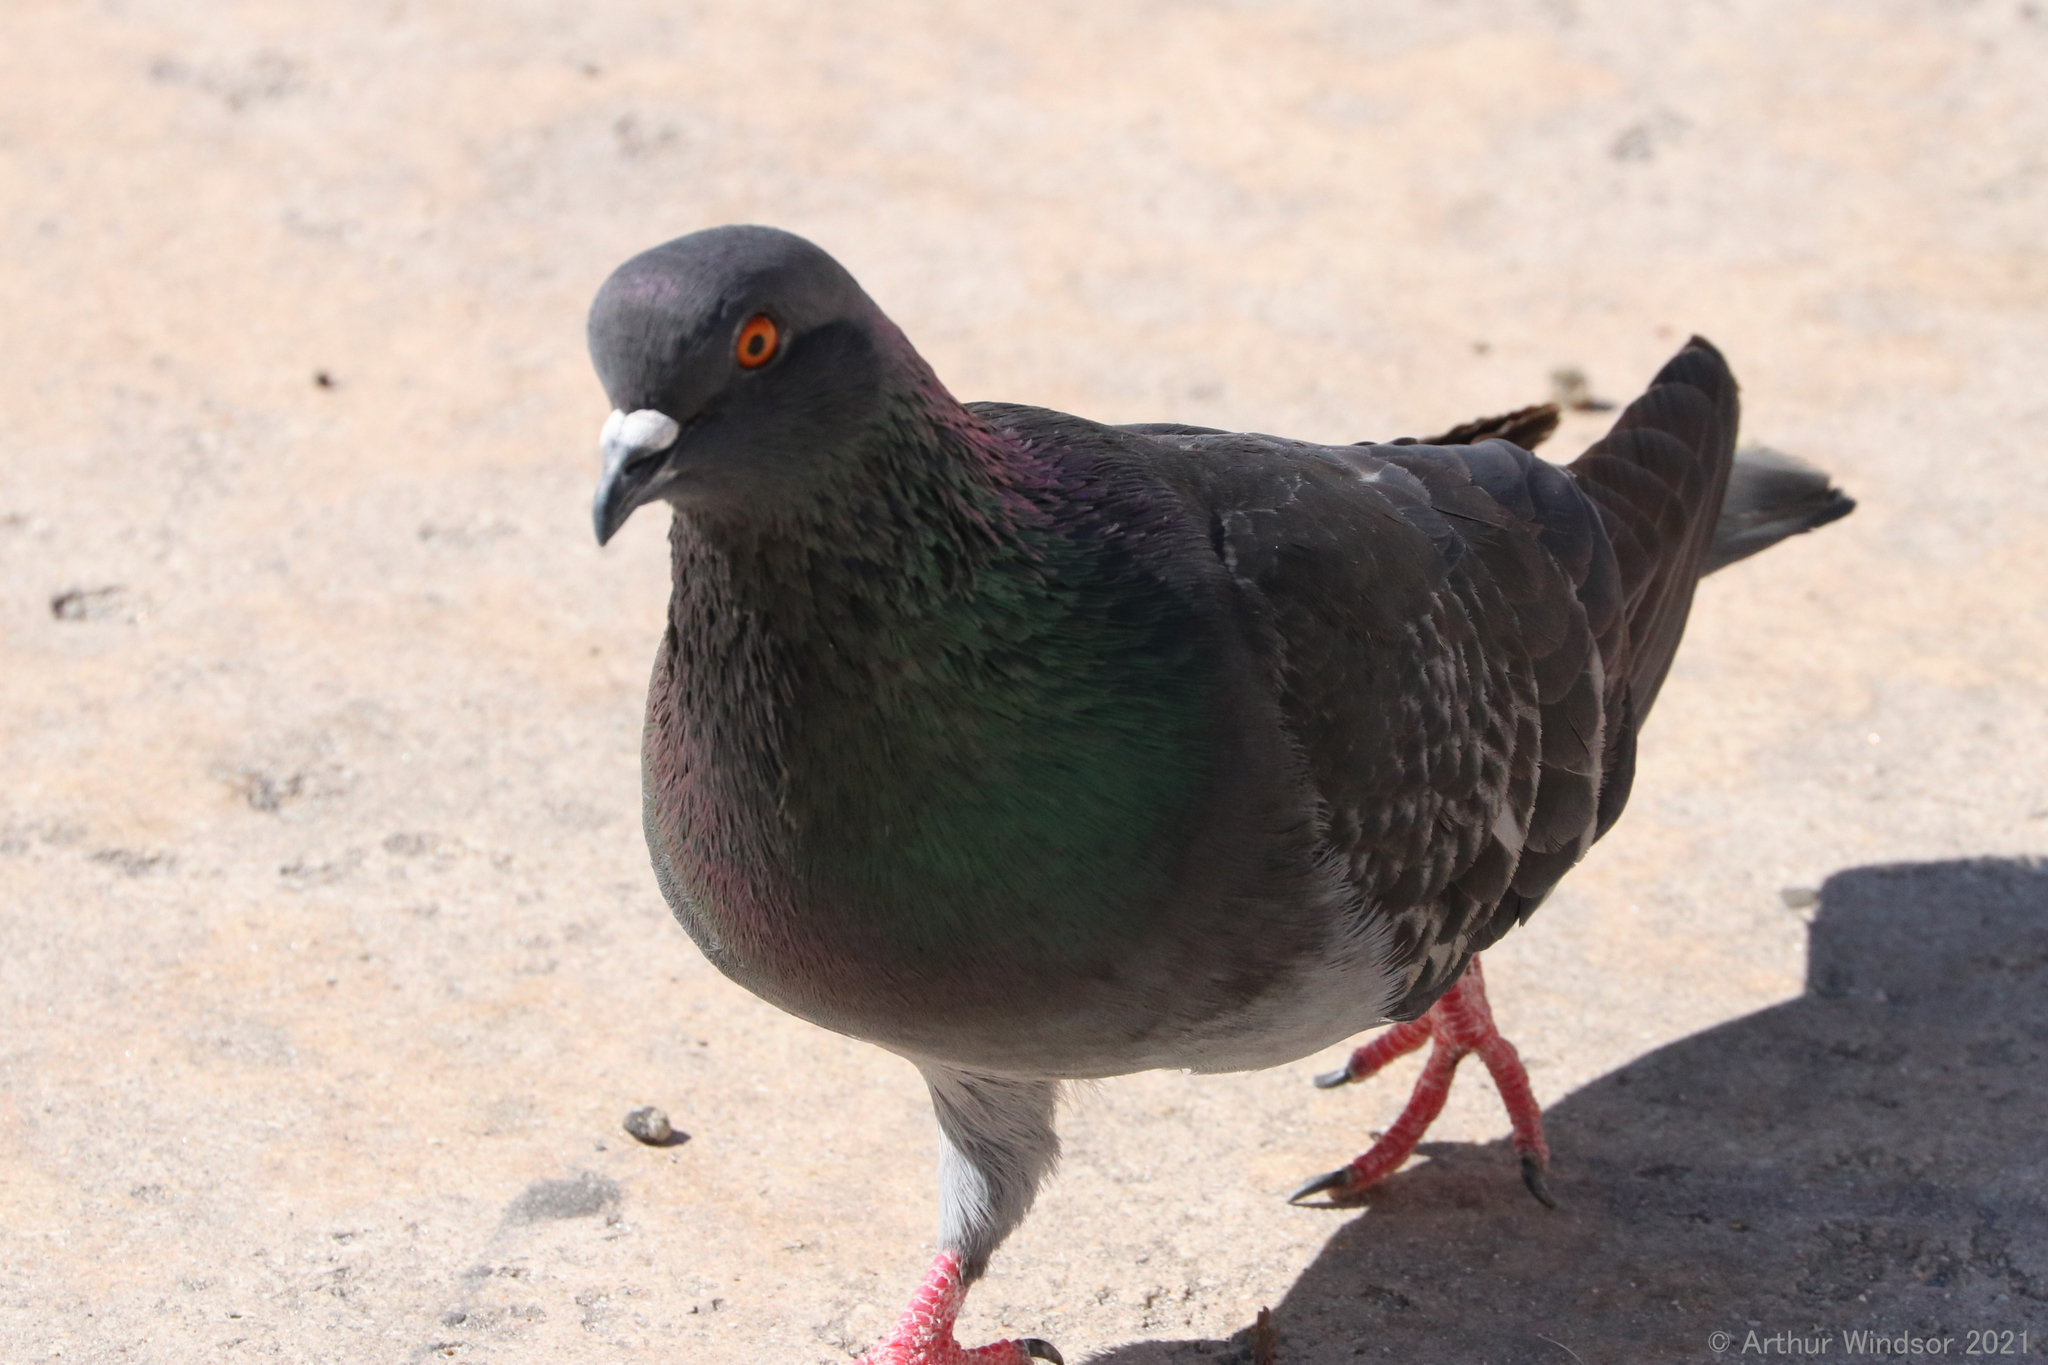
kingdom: Animalia
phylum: Chordata
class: Aves
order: Columbiformes
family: Columbidae
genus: Columba
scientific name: Columba livia
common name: Rock pigeon
